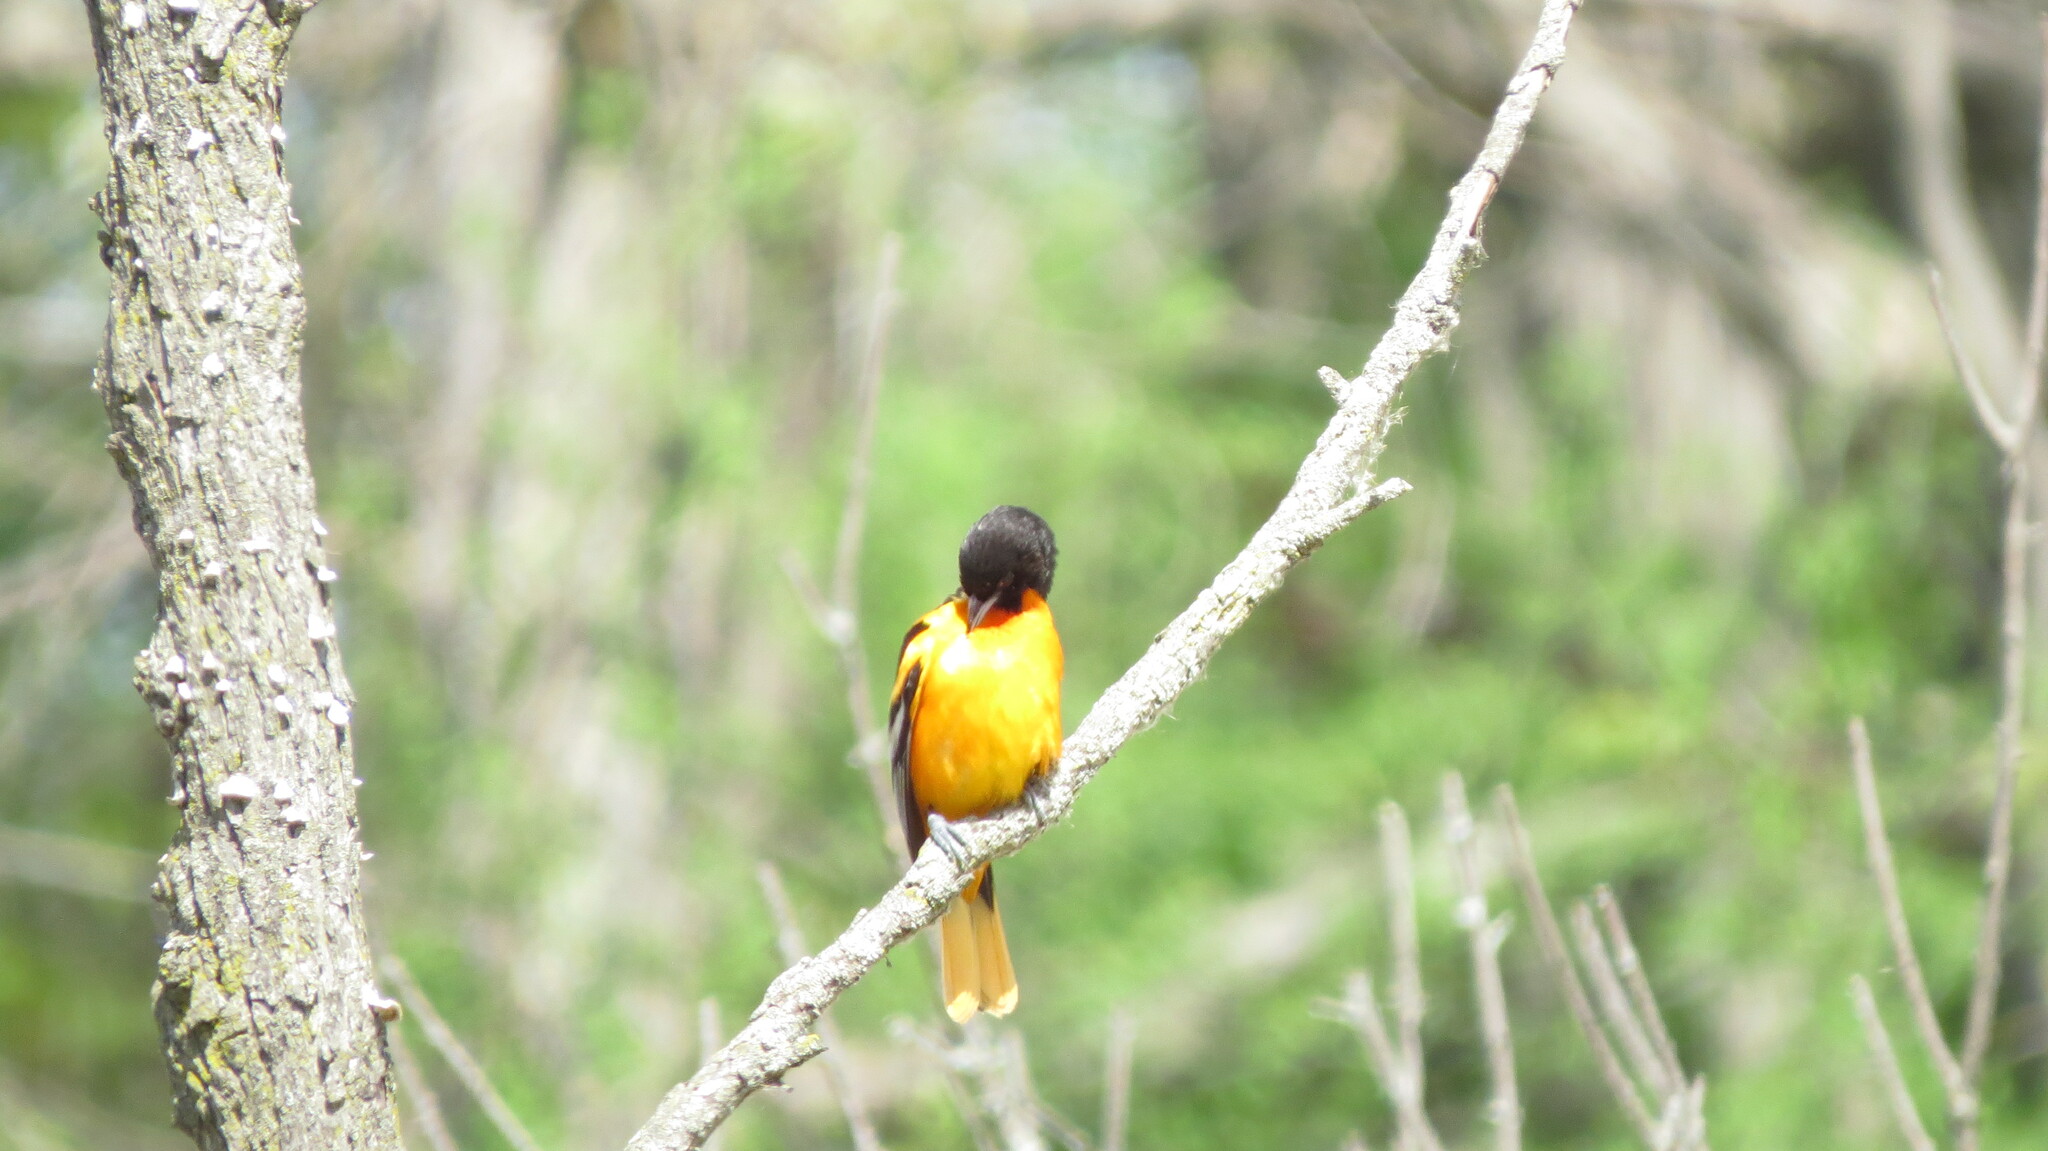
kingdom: Animalia
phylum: Chordata
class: Aves
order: Passeriformes
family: Icteridae
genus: Icterus
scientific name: Icterus galbula
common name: Baltimore oriole
